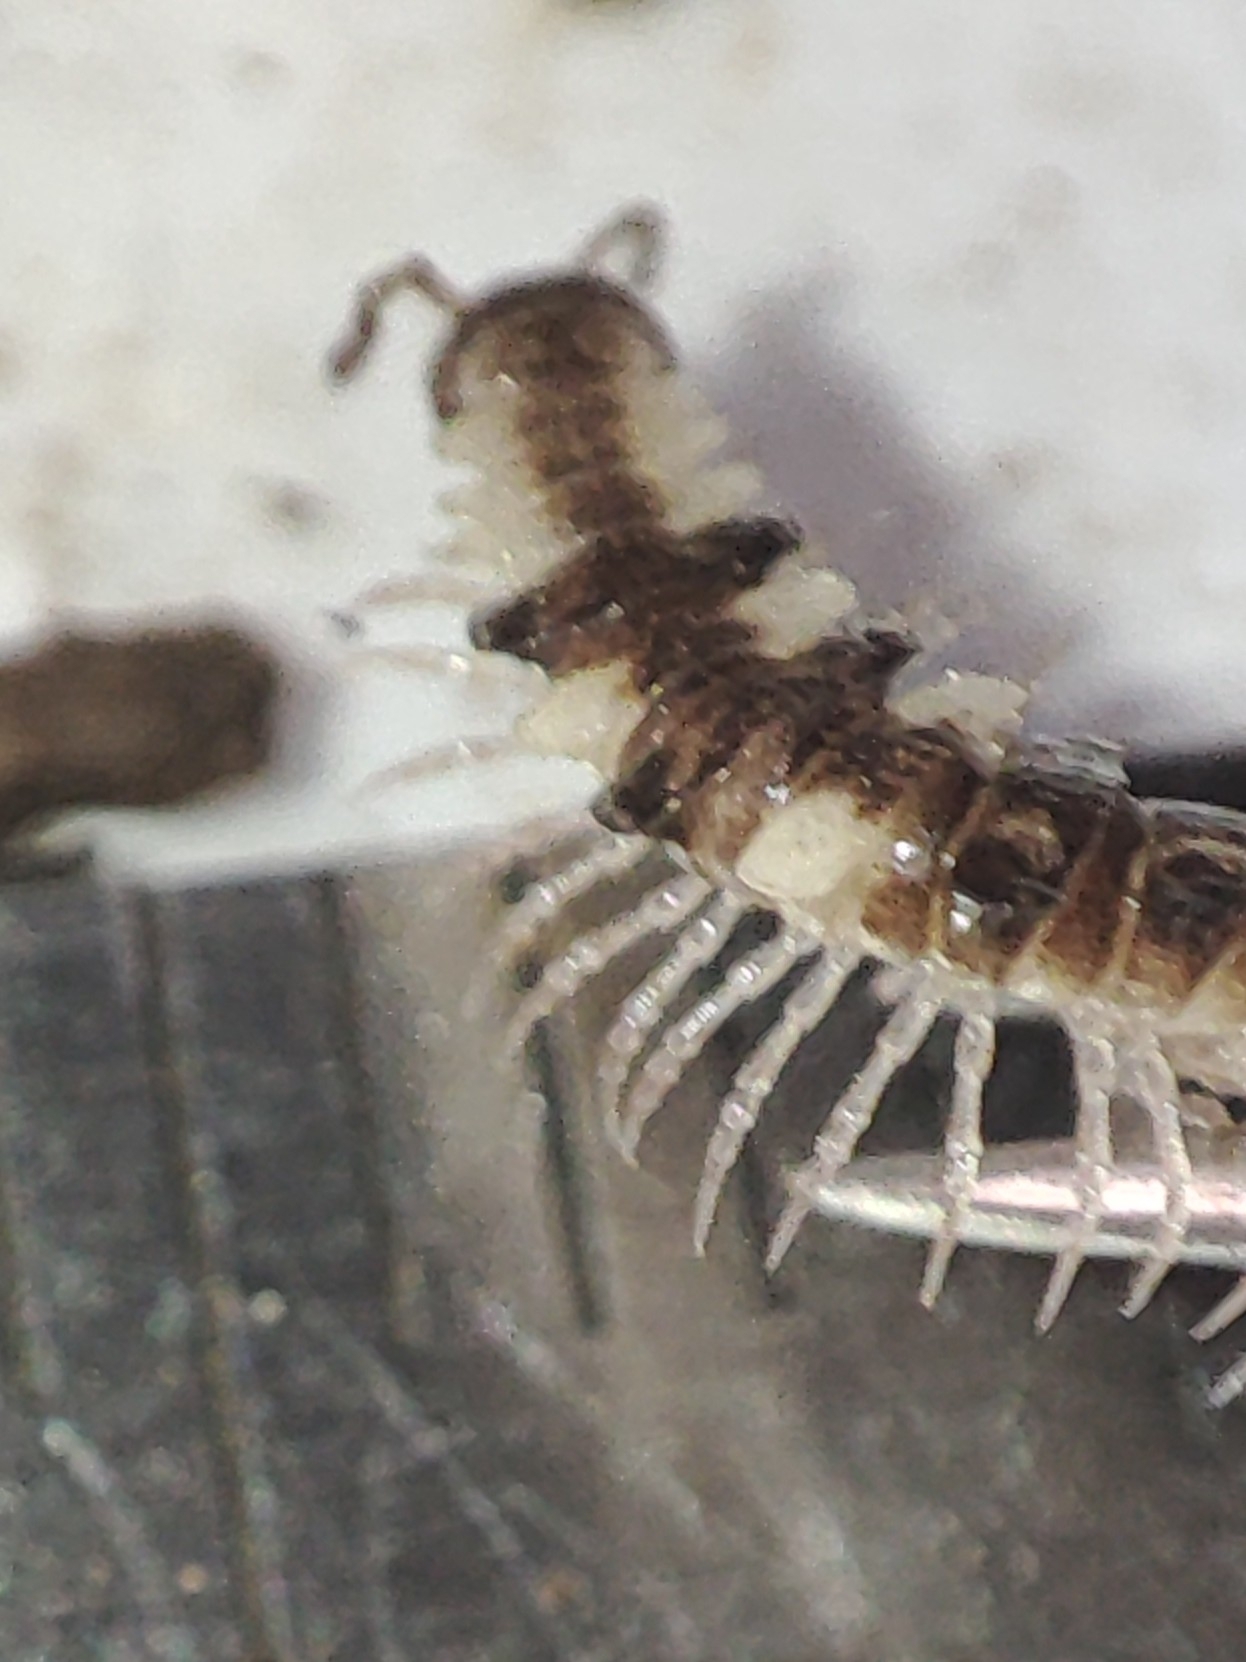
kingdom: Animalia
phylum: Arthropoda
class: Diplopoda
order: Polydesmida
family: Polydesmidae
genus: Polydesmus
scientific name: Polydesmus polonicus
